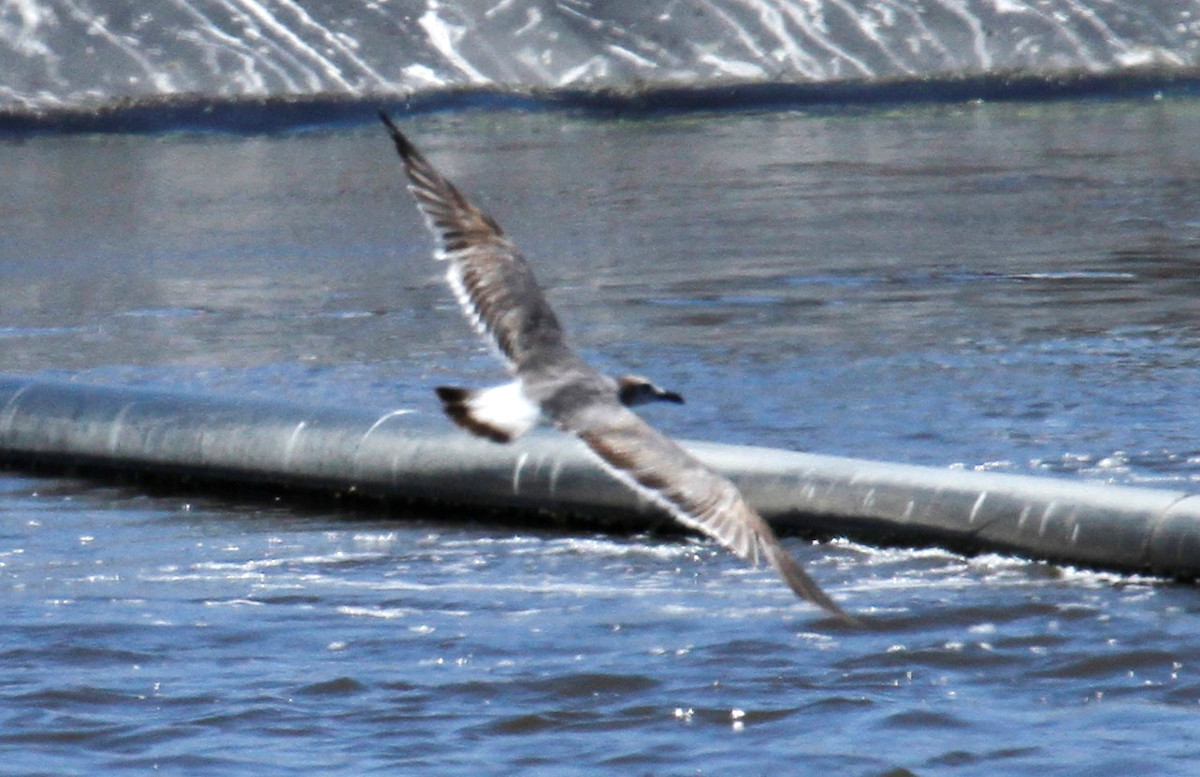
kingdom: Animalia
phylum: Chordata
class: Aves
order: Charadriiformes
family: Laridae
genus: Leucophaeus
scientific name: Leucophaeus atricilla
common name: Laughing gull
